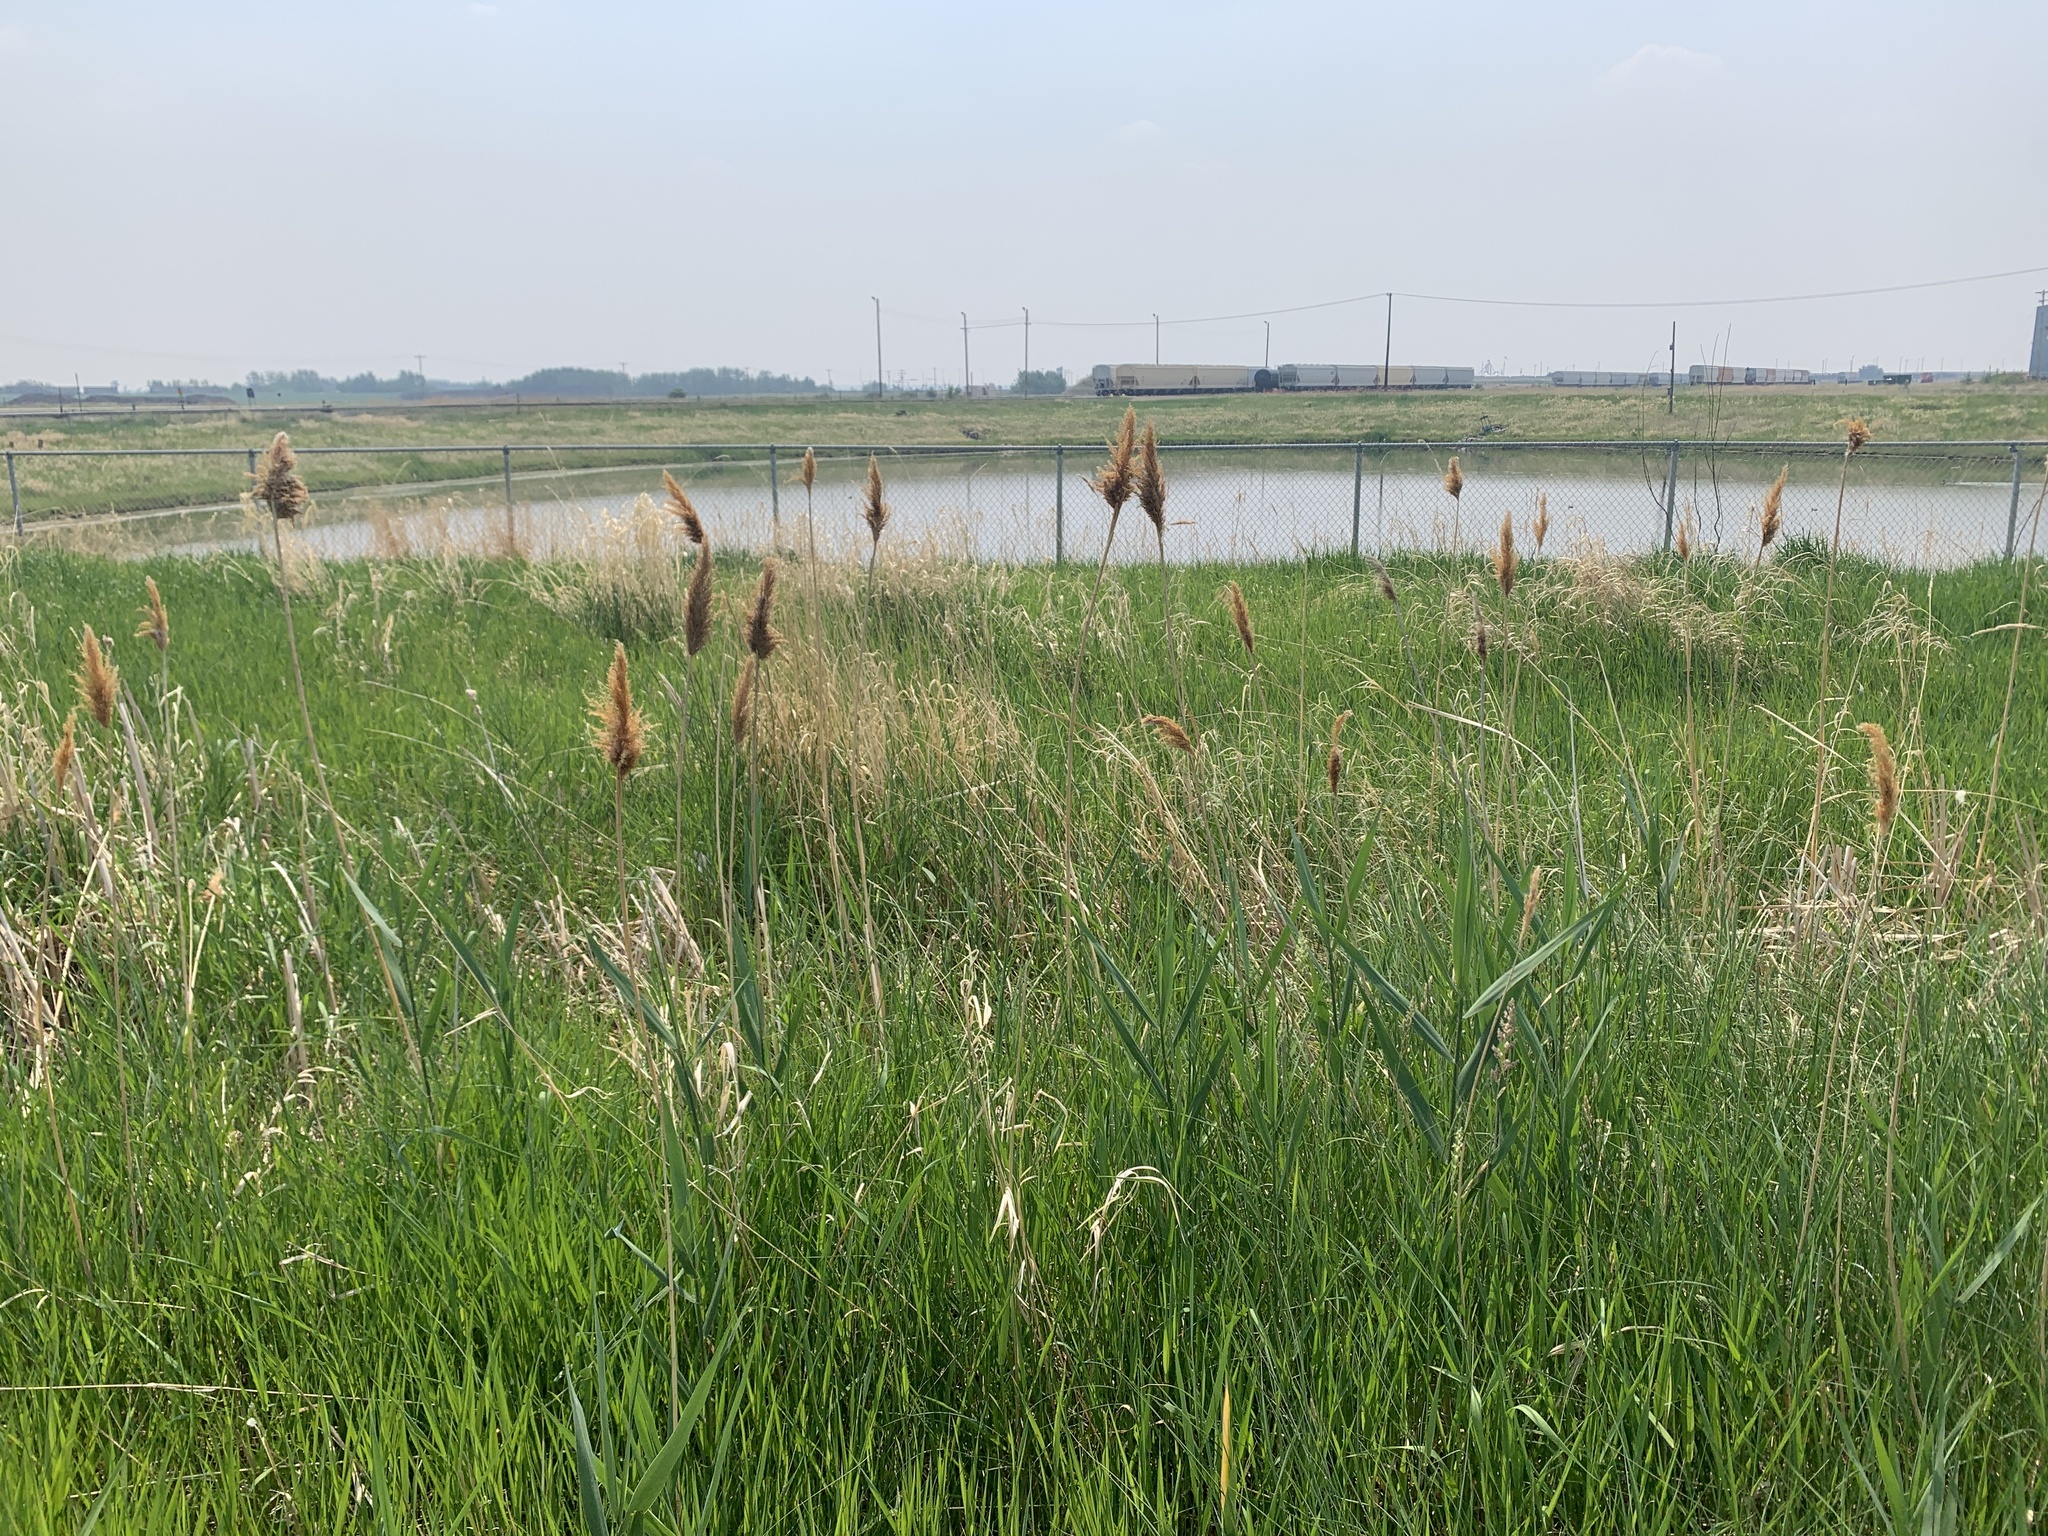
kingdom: Plantae
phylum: Tracheophyta
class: Liliopsida
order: Poales
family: Poaceae
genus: Phragmites
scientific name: Phragmites australis
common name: Common reed
